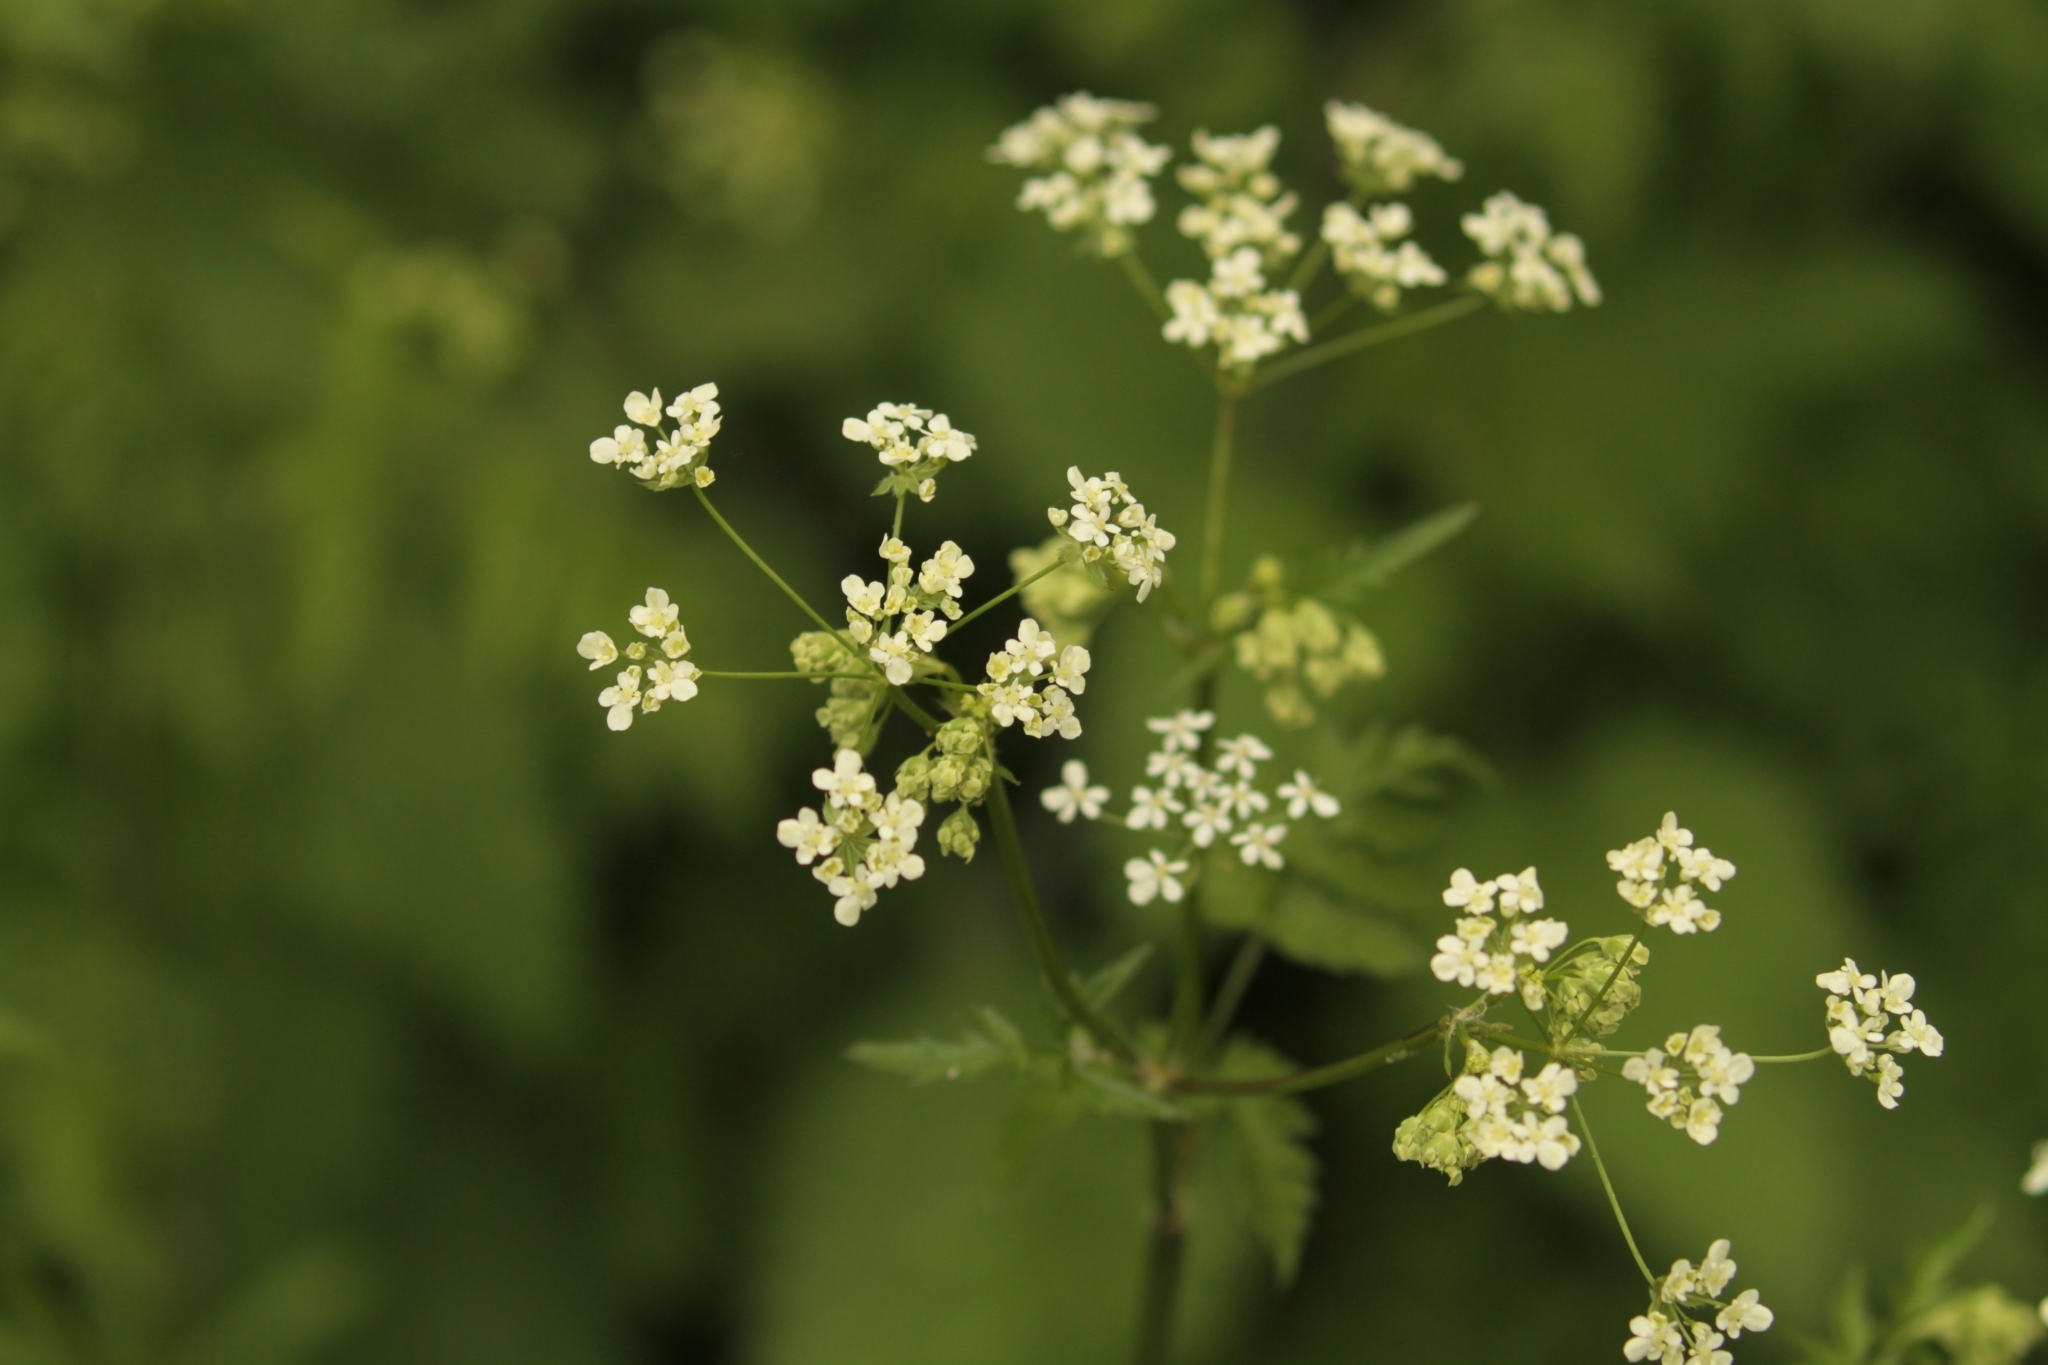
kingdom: Plantae
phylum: Tracheophyta
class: Magnoliopsida
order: Apiales
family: Apiaceae
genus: Anthriscus
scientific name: Anthriscus sylvestris
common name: Cow parsley
